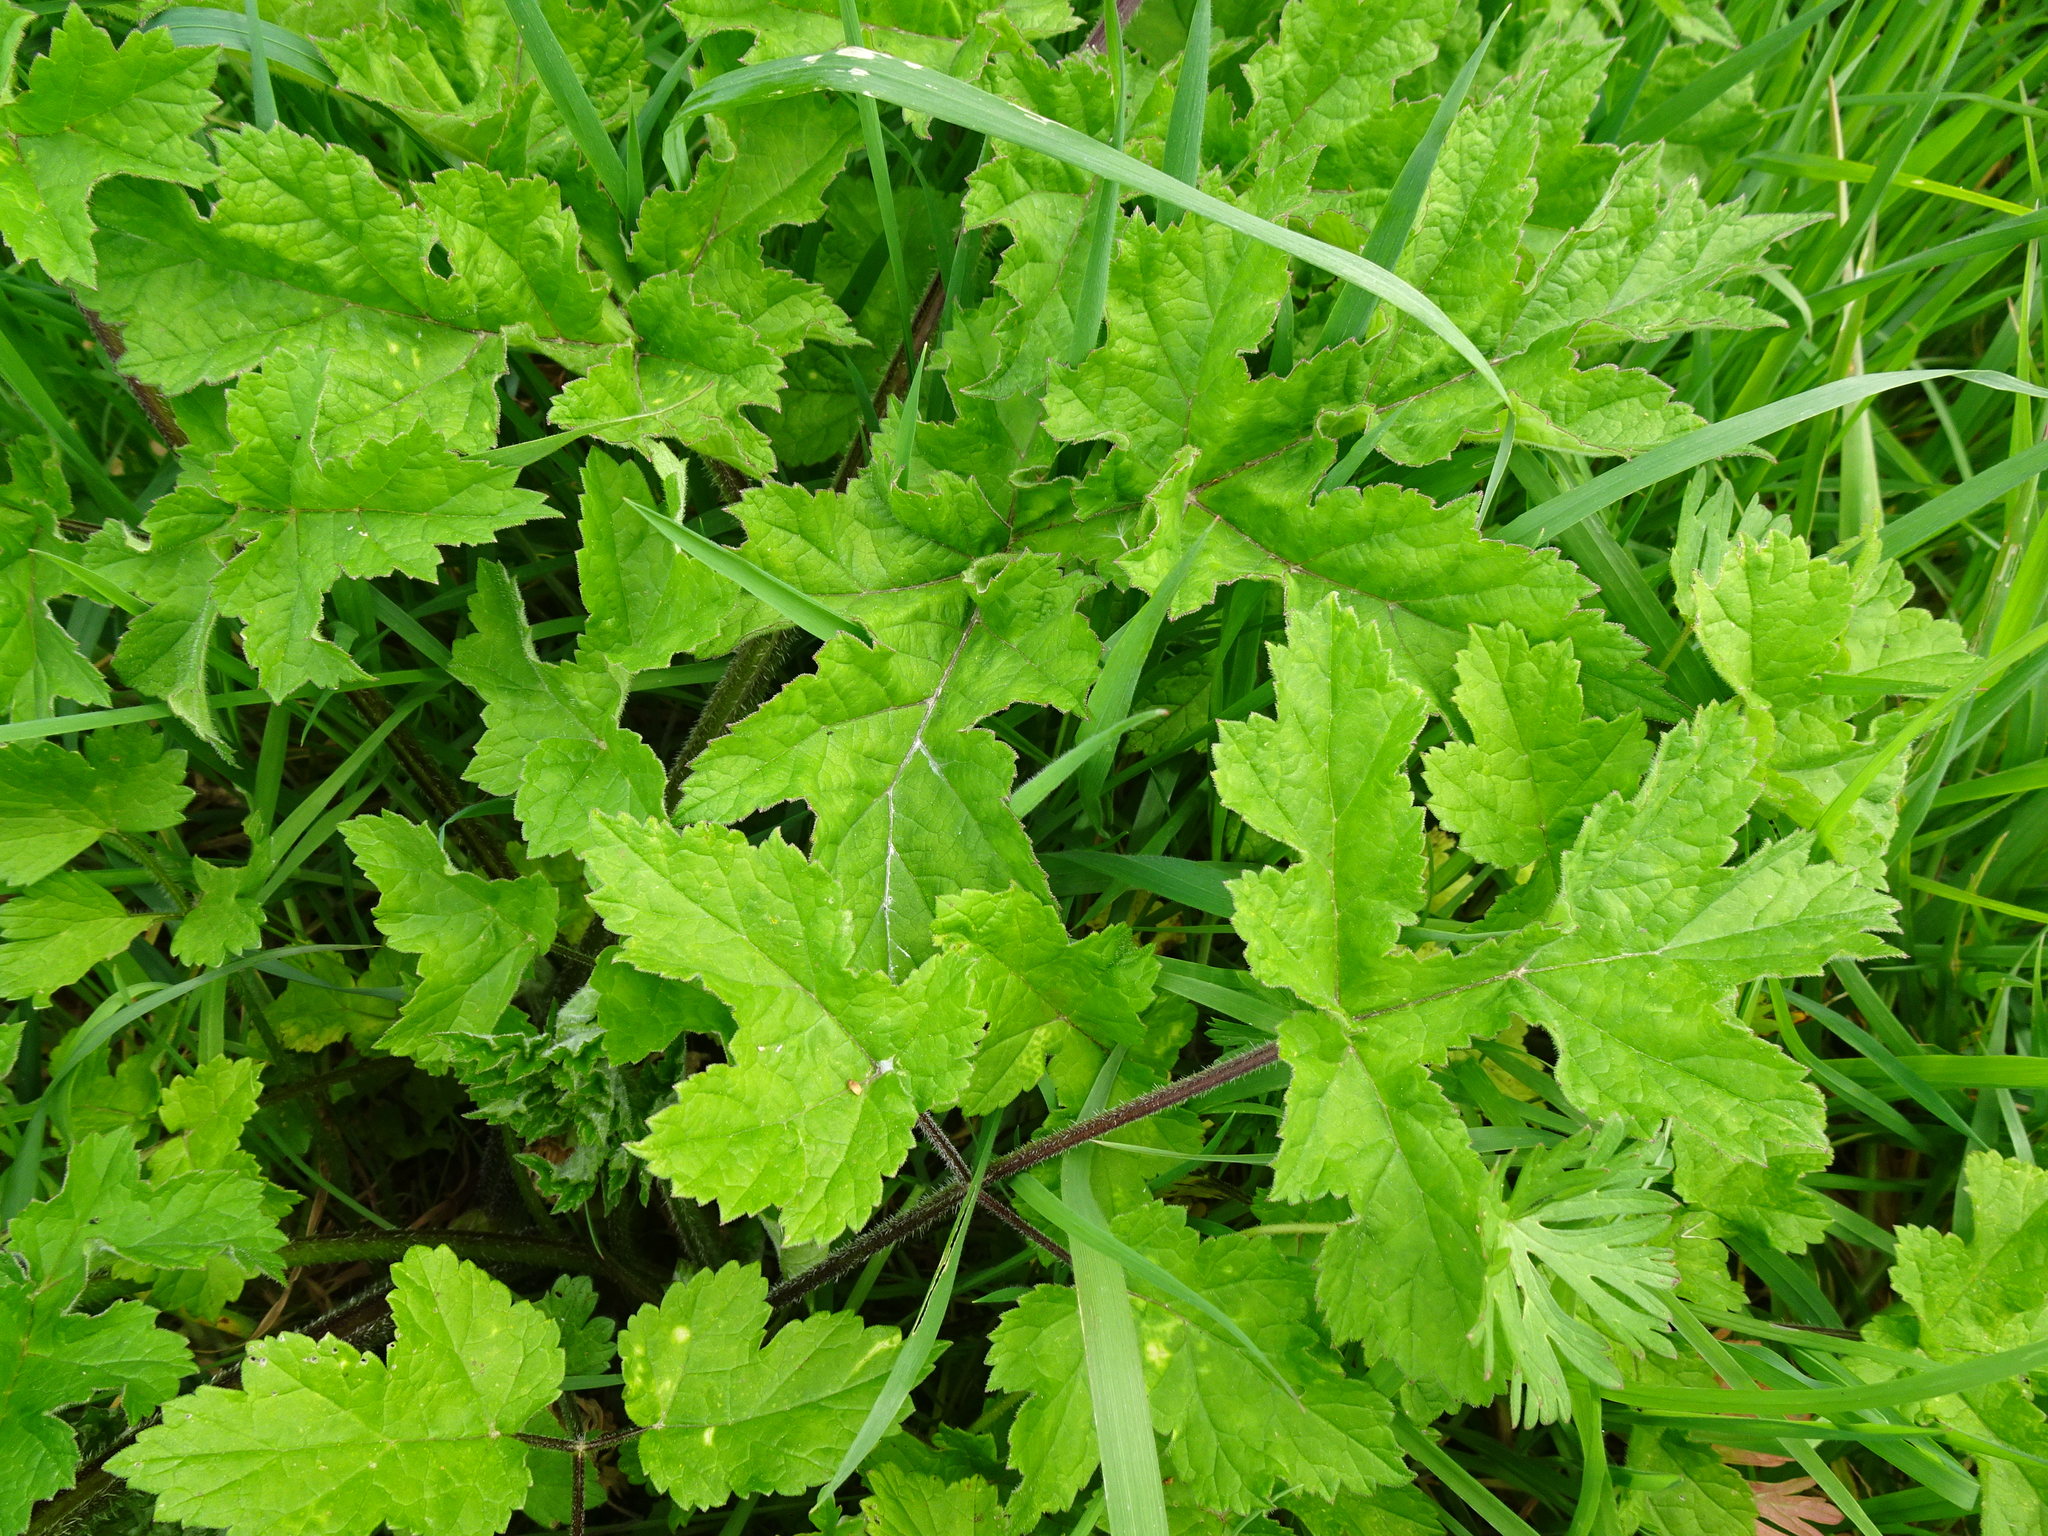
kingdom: Plantae
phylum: Tracheophyta
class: Magnoliopsida
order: Apiales
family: Apiaceae
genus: Heracleum
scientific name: Heracleum sphondylium
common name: Hogweed
